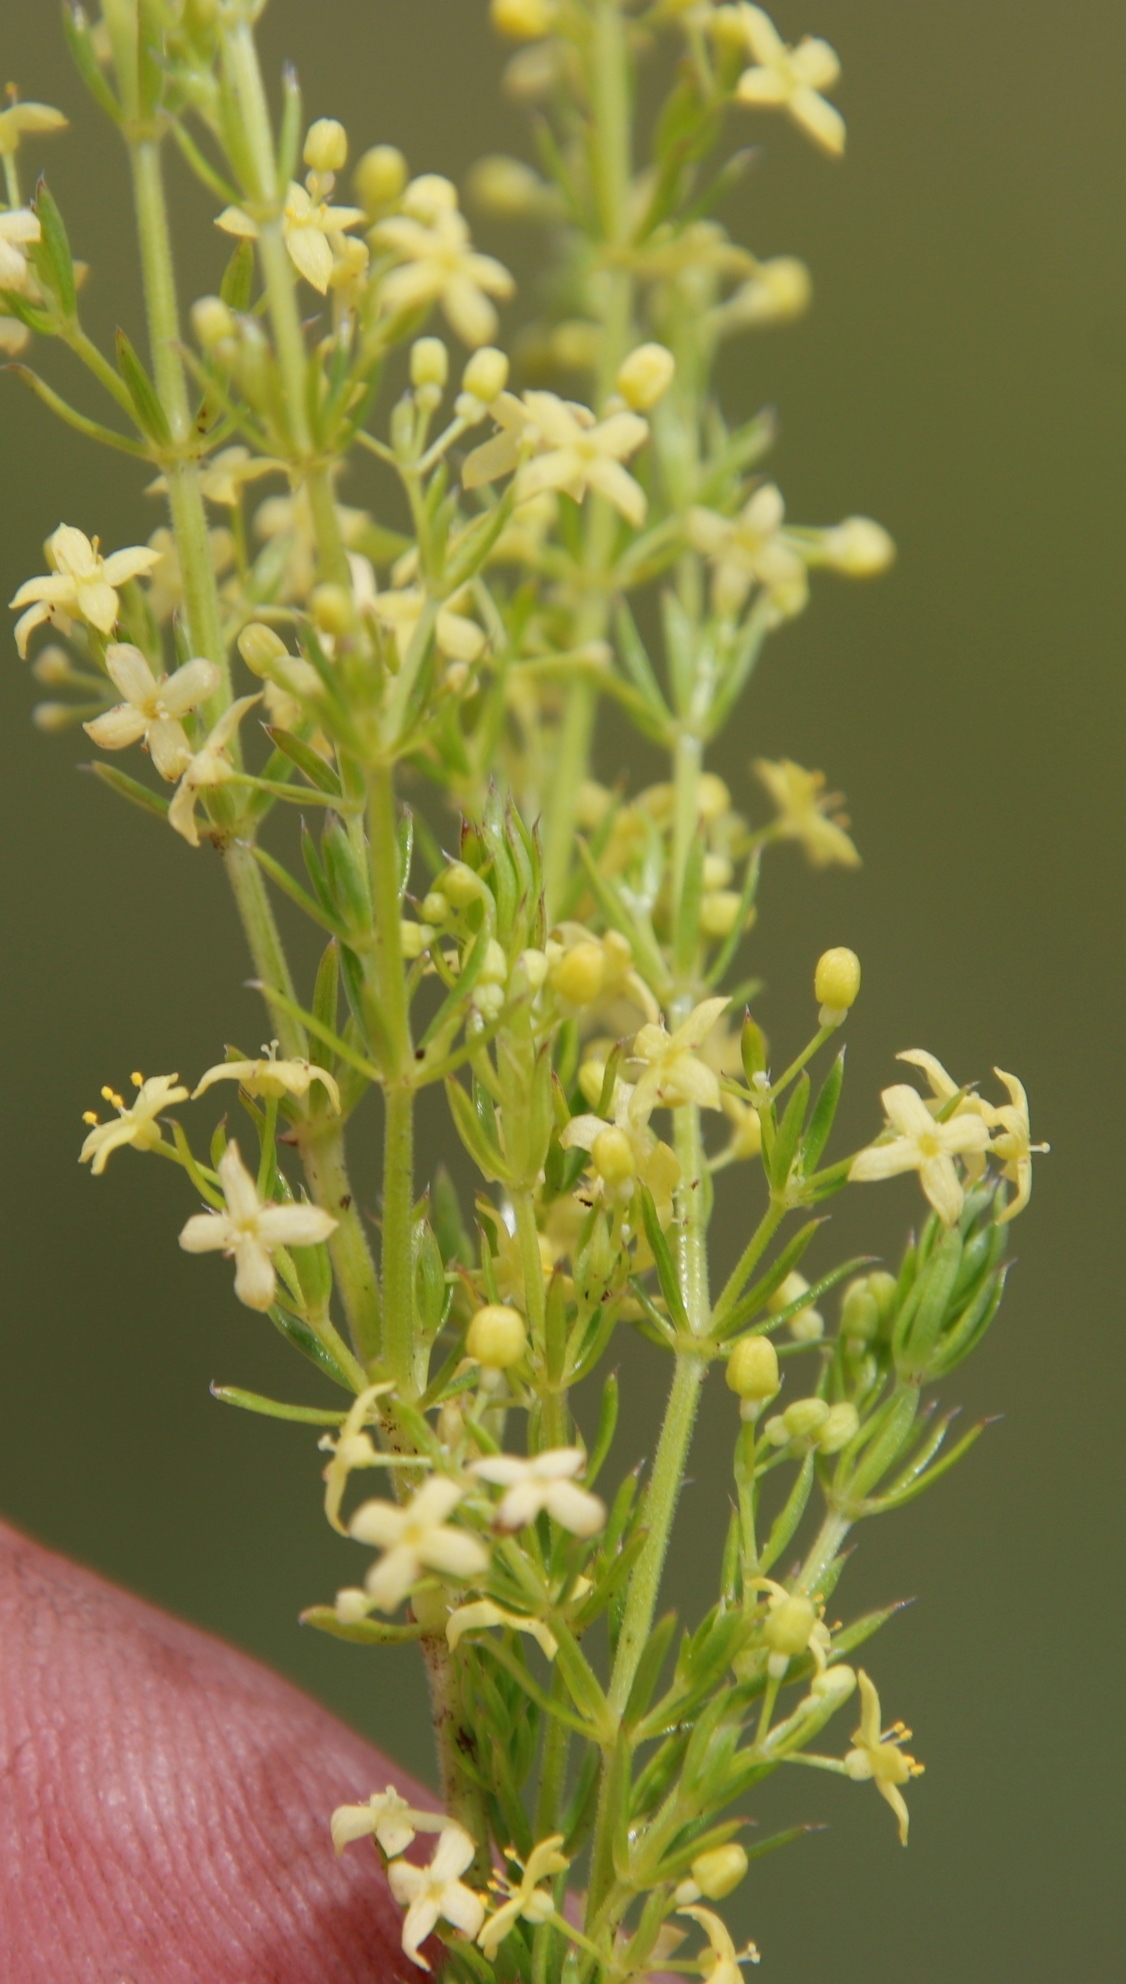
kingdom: Plantae
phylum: Tracheophyta
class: Magnoliopsida
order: Gentianales
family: Rubiaceae
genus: Galium
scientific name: Galium capense
